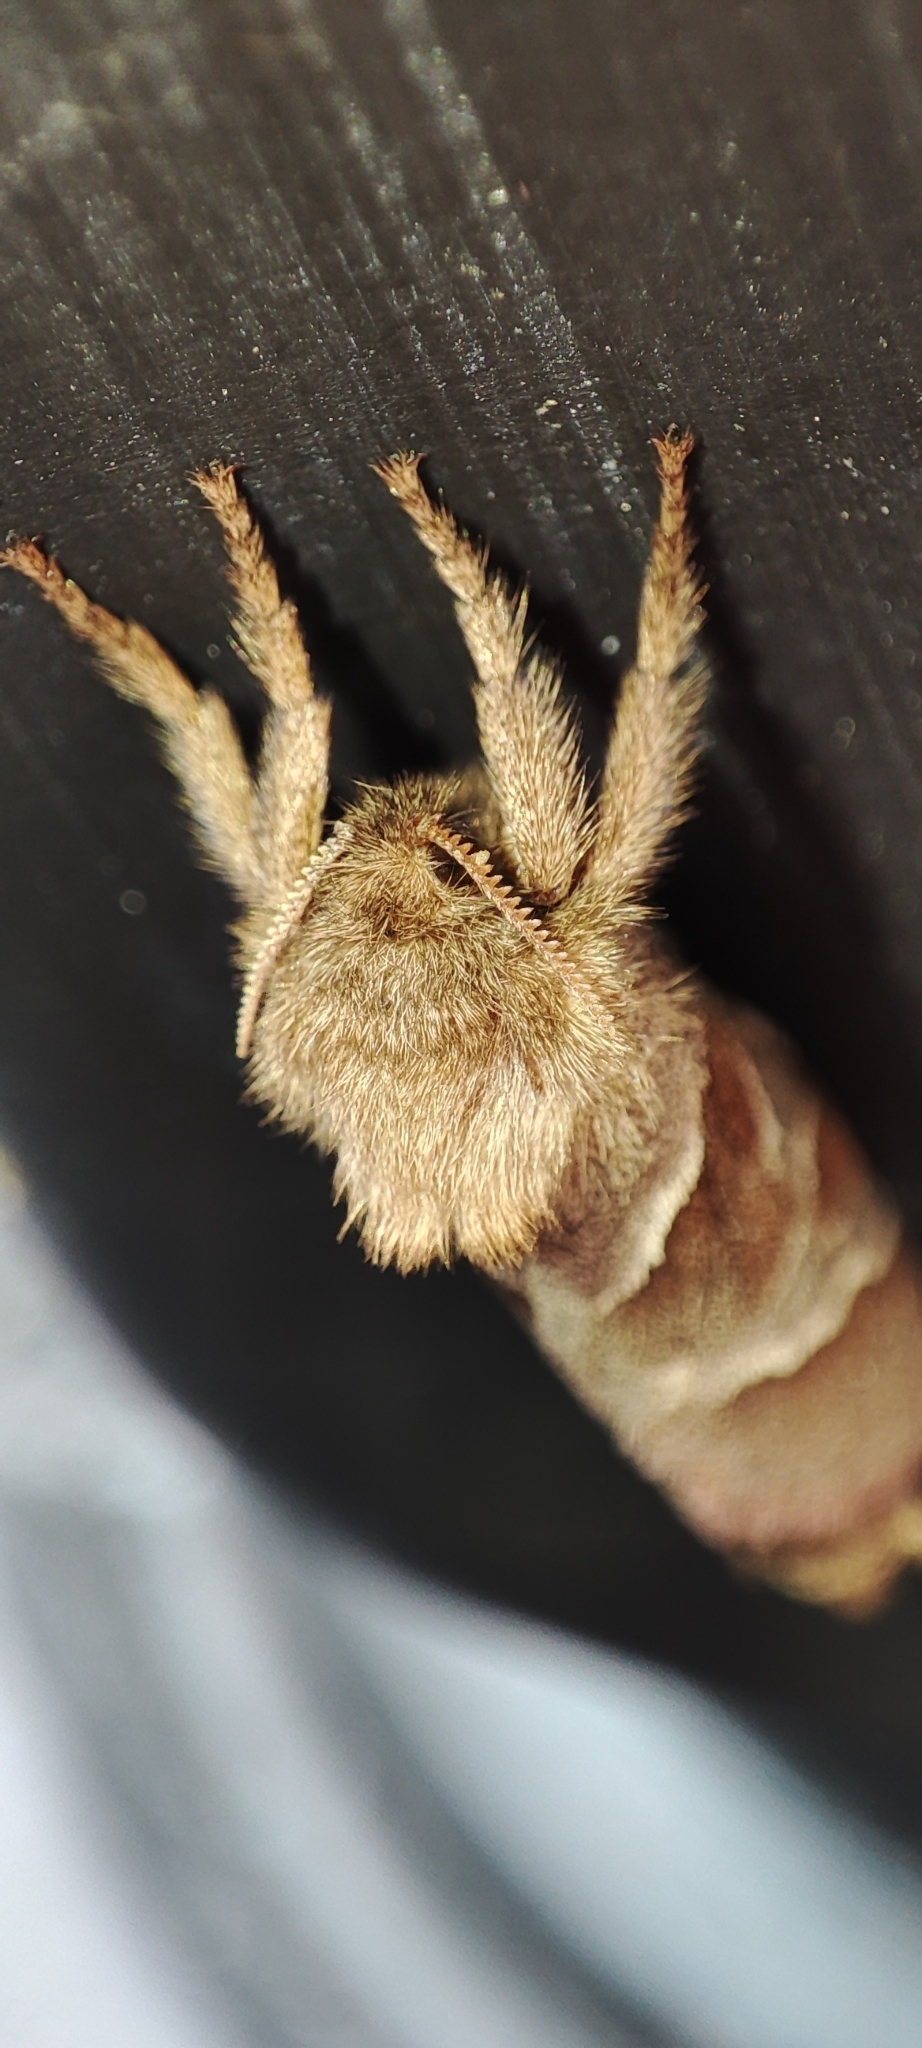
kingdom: Animalia
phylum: Arthropoda
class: Insecta
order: Lepidoptera
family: Hepialidae
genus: Triodia
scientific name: Triodia sylvina
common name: Orange swift
